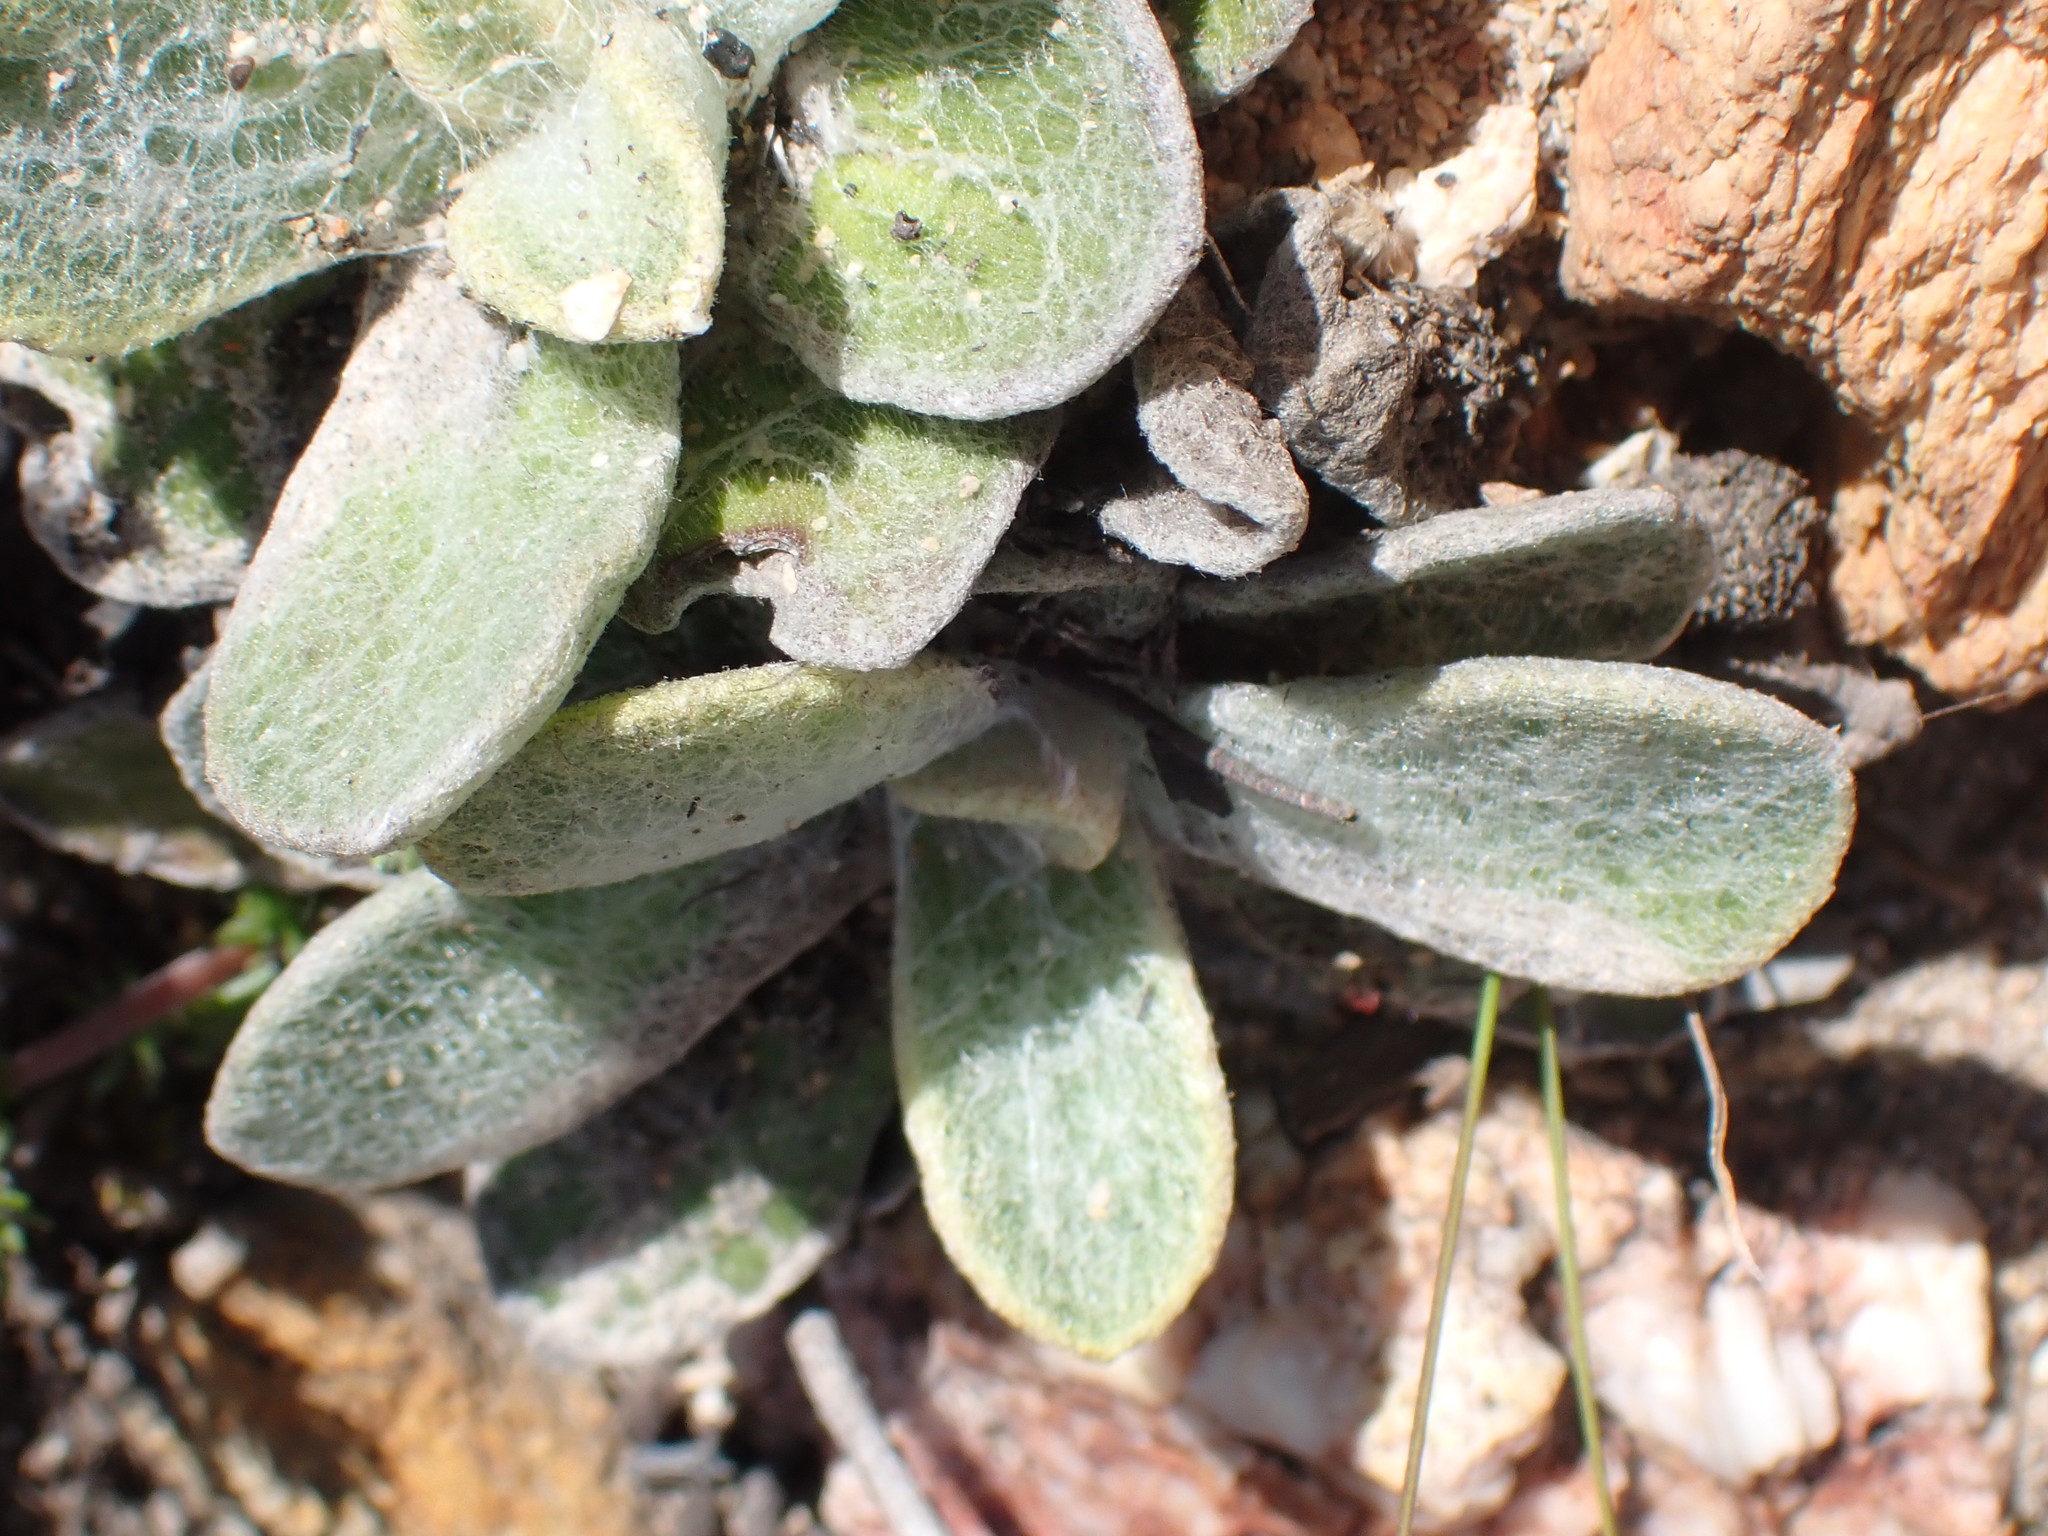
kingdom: Plantae
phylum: Tracheophyta
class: Magnoliopsida
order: Asterales
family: Asteraceae
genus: Helichrysum
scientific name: Helichrysum rotundifolium
